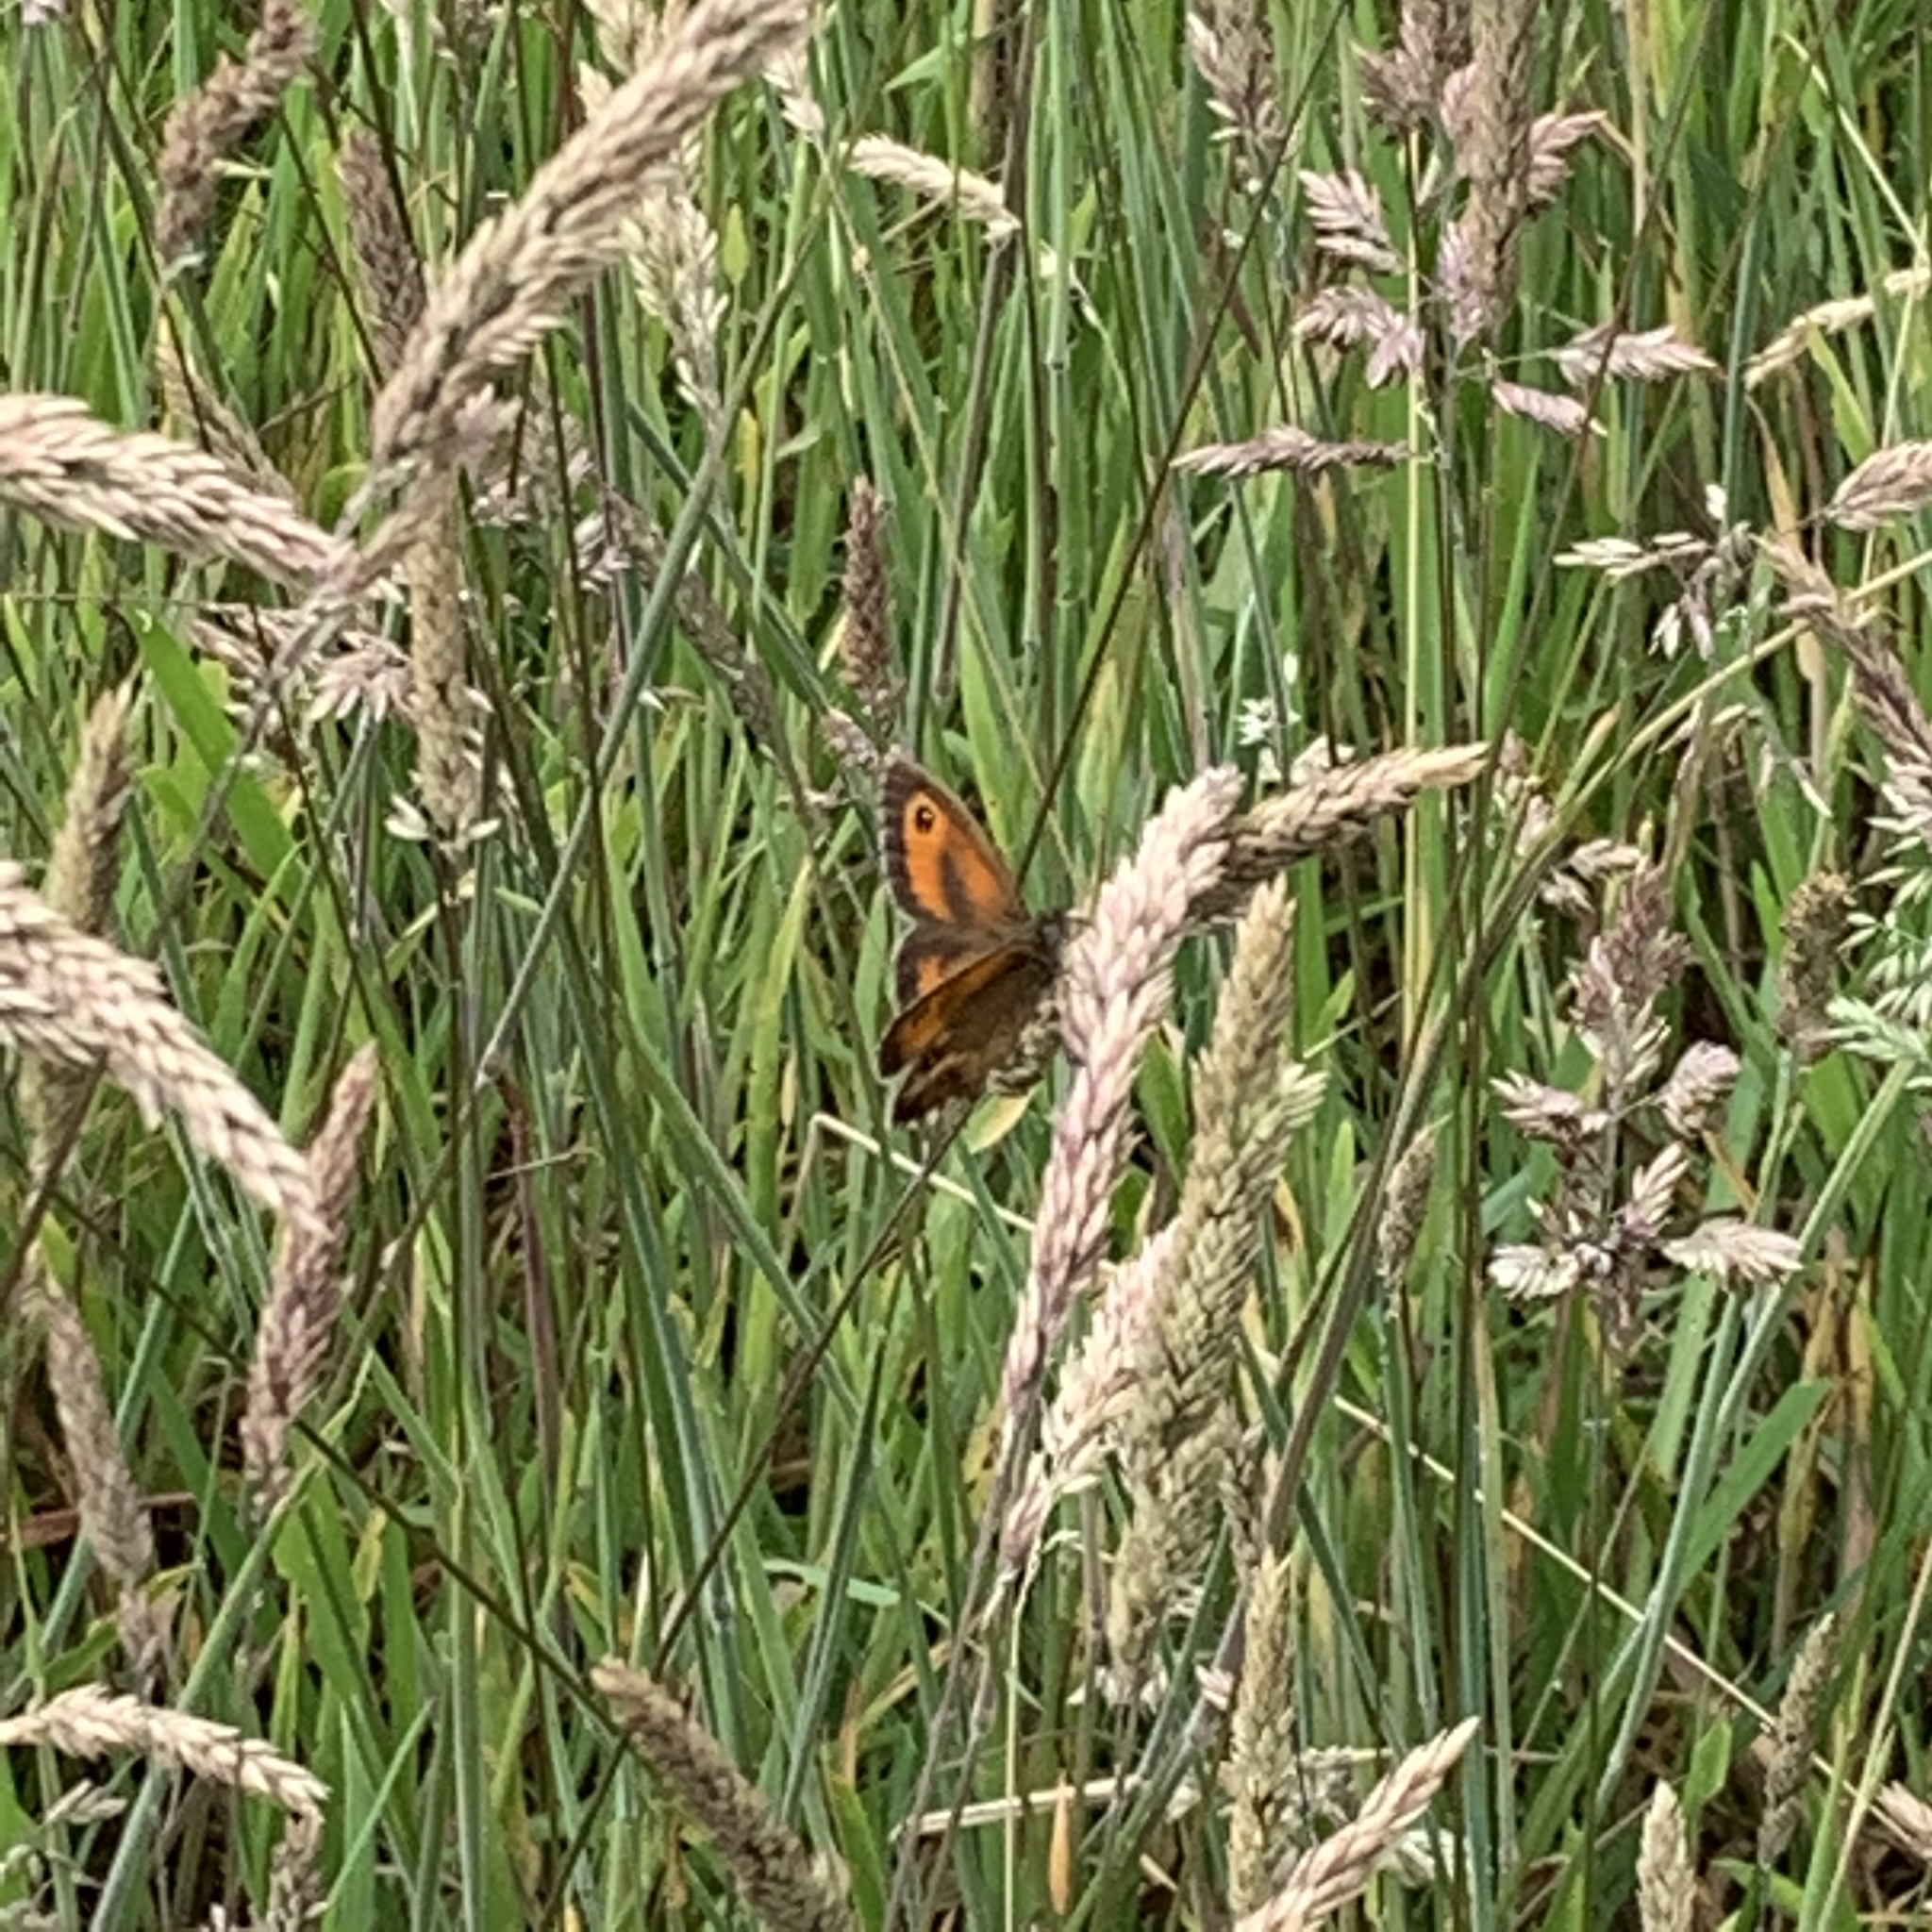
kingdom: Animalia
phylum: Arthropoda
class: Insecta
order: Lepidoptera
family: Nymphalidae
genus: Pyronia
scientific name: Pyronia tithonus
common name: Gatekeeper
